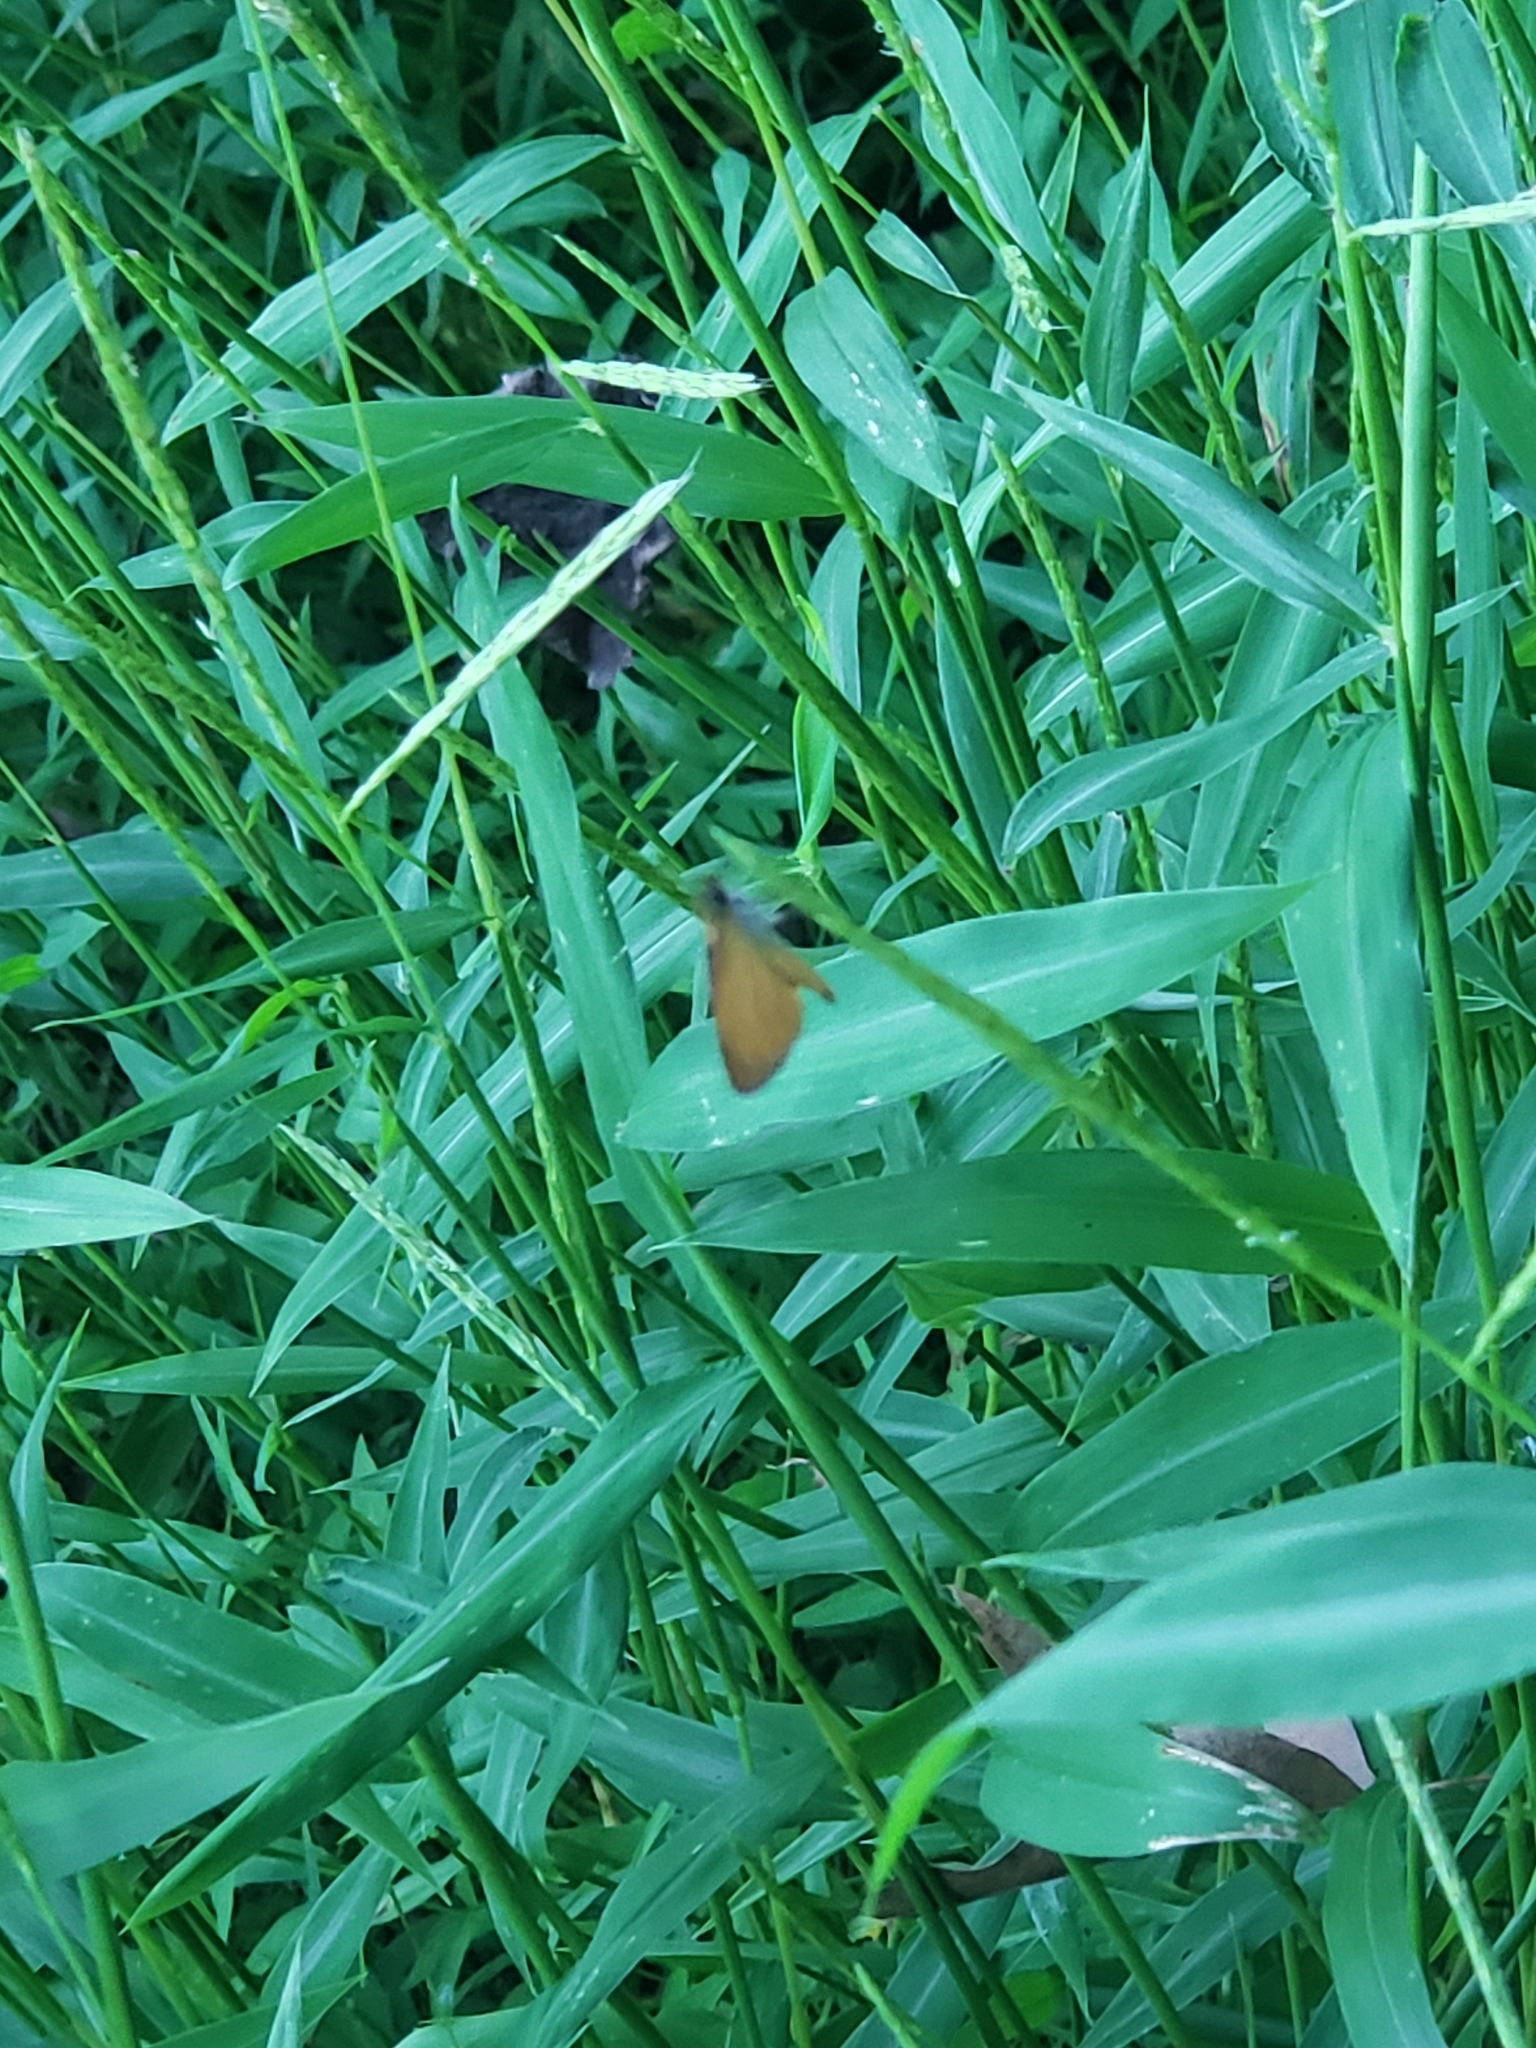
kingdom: Animalia
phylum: Arthropoda
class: Insecta
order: Lepidoptera
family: Hesperiidae
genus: Ancyloxypha
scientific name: Ancyloxypha numitor
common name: Least skipper
